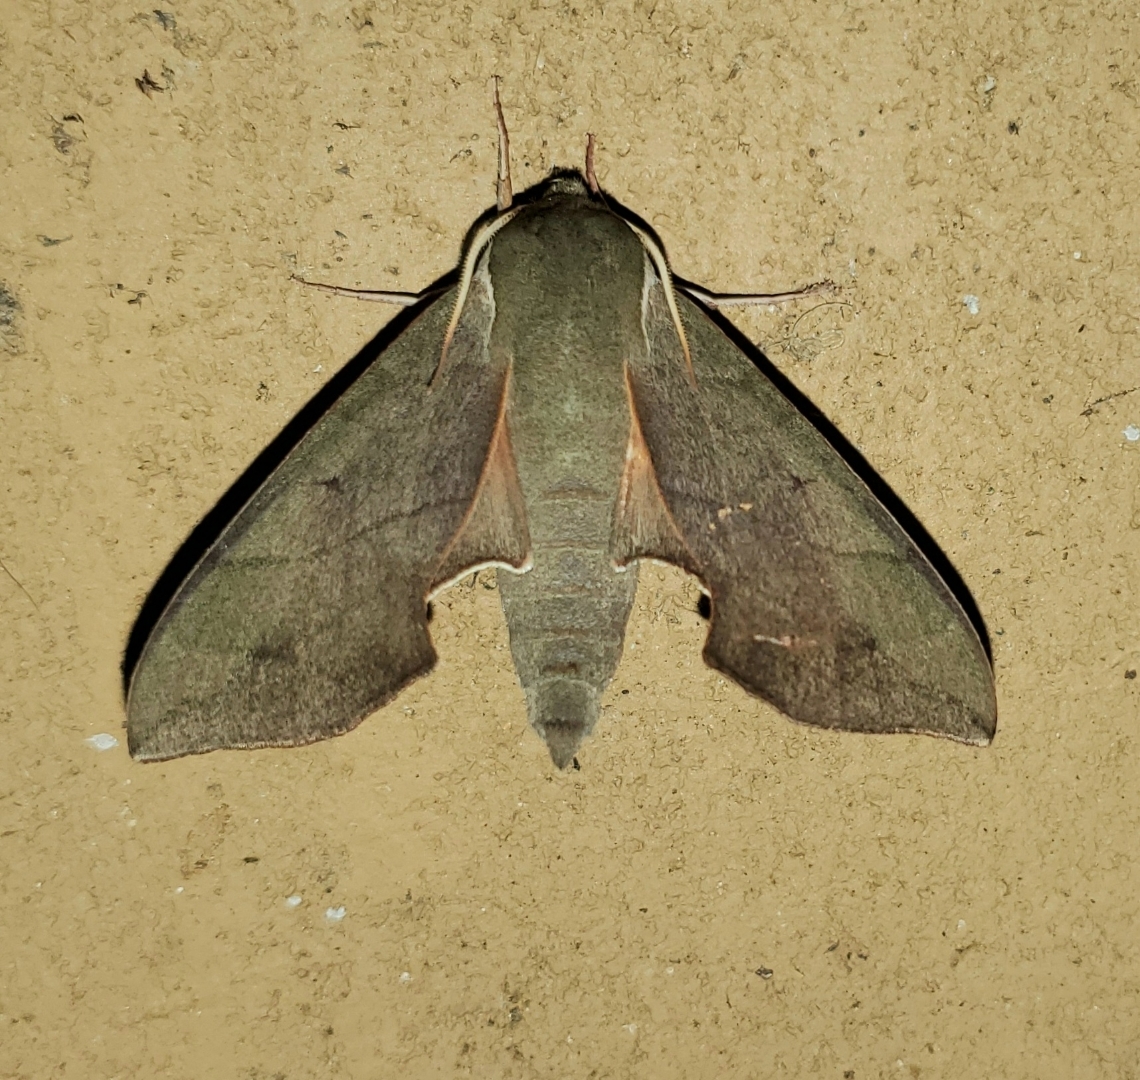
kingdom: Animalia
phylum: Arthropoda
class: Insecta
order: Lepidoptera
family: Sphingidae
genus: Darapsa
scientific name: Darapsa myron
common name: Hog sphinx
